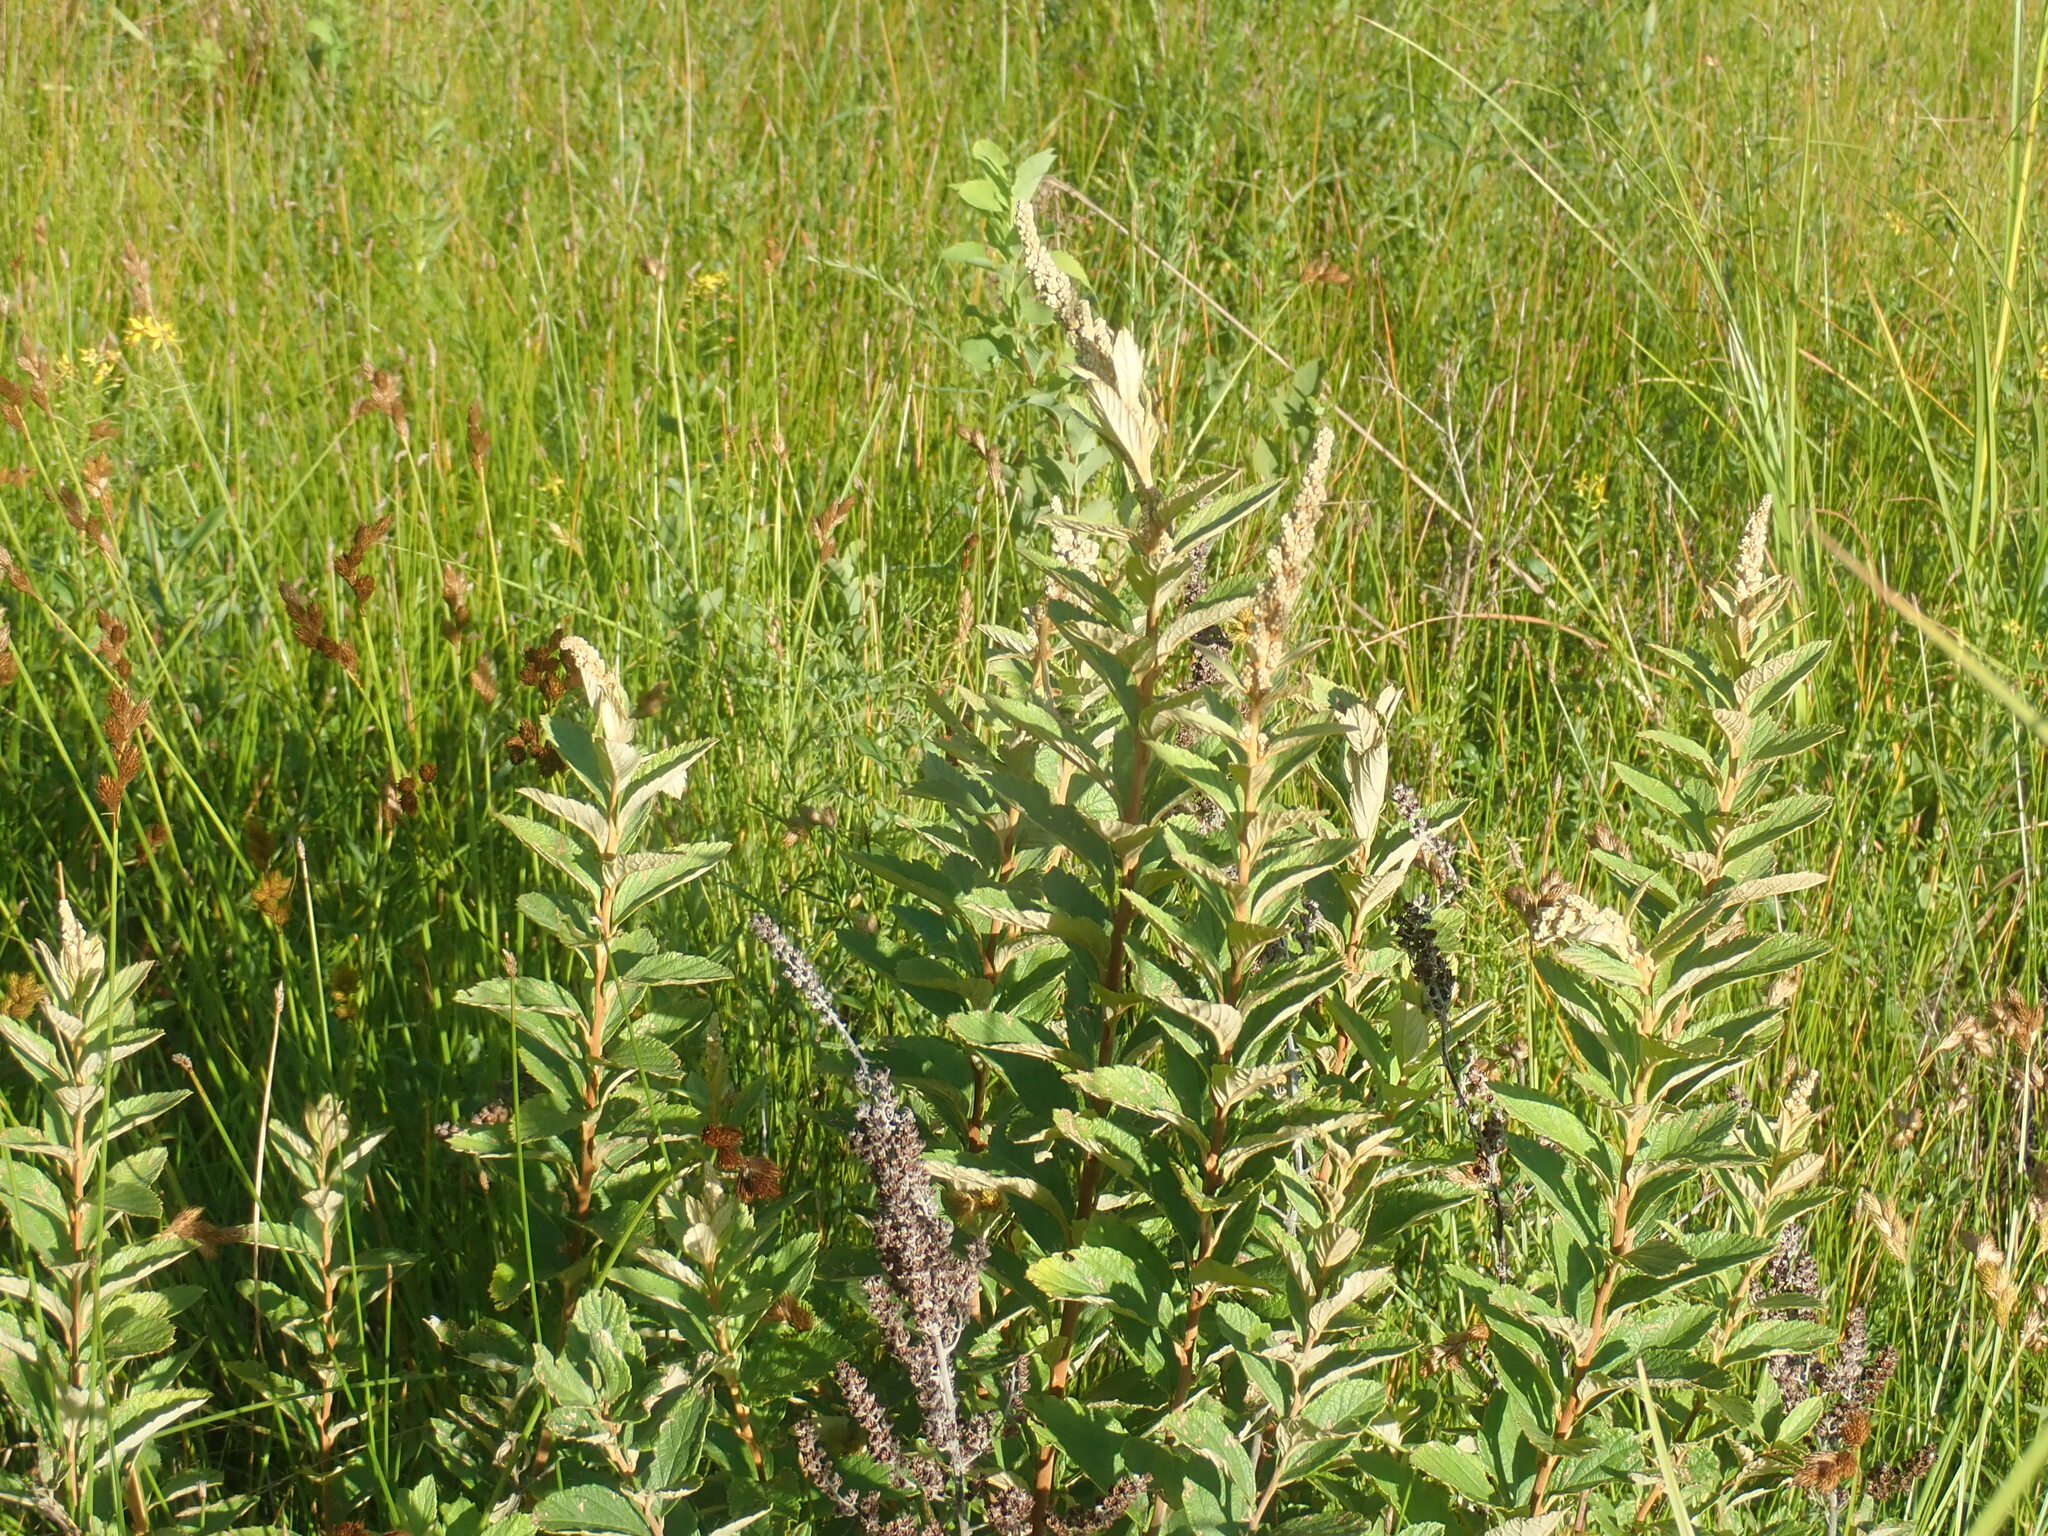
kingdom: Plantae
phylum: Tracheophyta
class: Magnoliopsida
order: Rosales
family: Rosaceae
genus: Spiraea
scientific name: Spiraea tomentosa
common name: Hardhack
